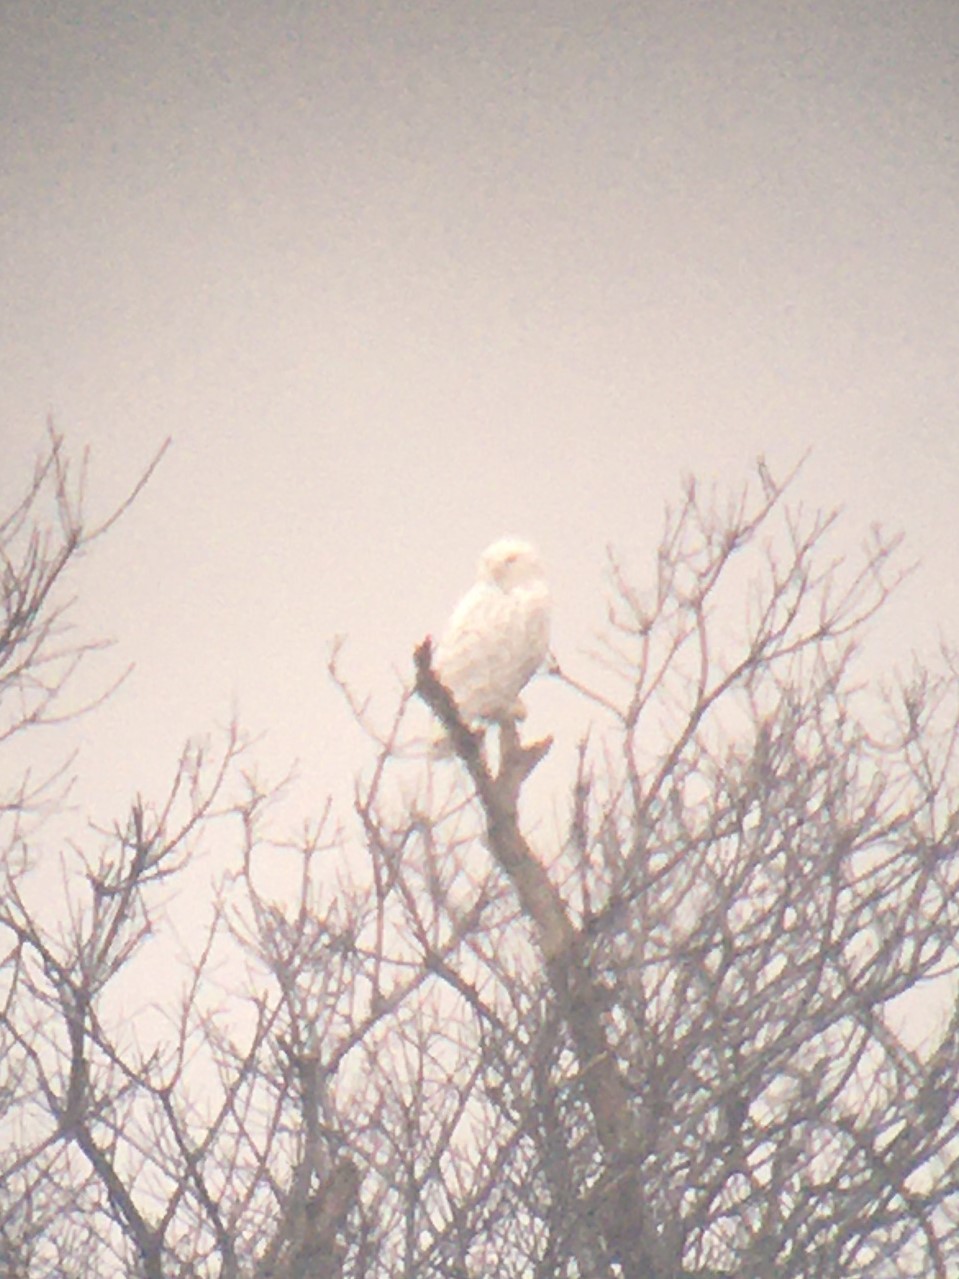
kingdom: Animalia
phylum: Chordata
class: Aves
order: Strigiformes
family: Strigidae
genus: Bubo
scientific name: Bubo scandiacus
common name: Snowy owl
